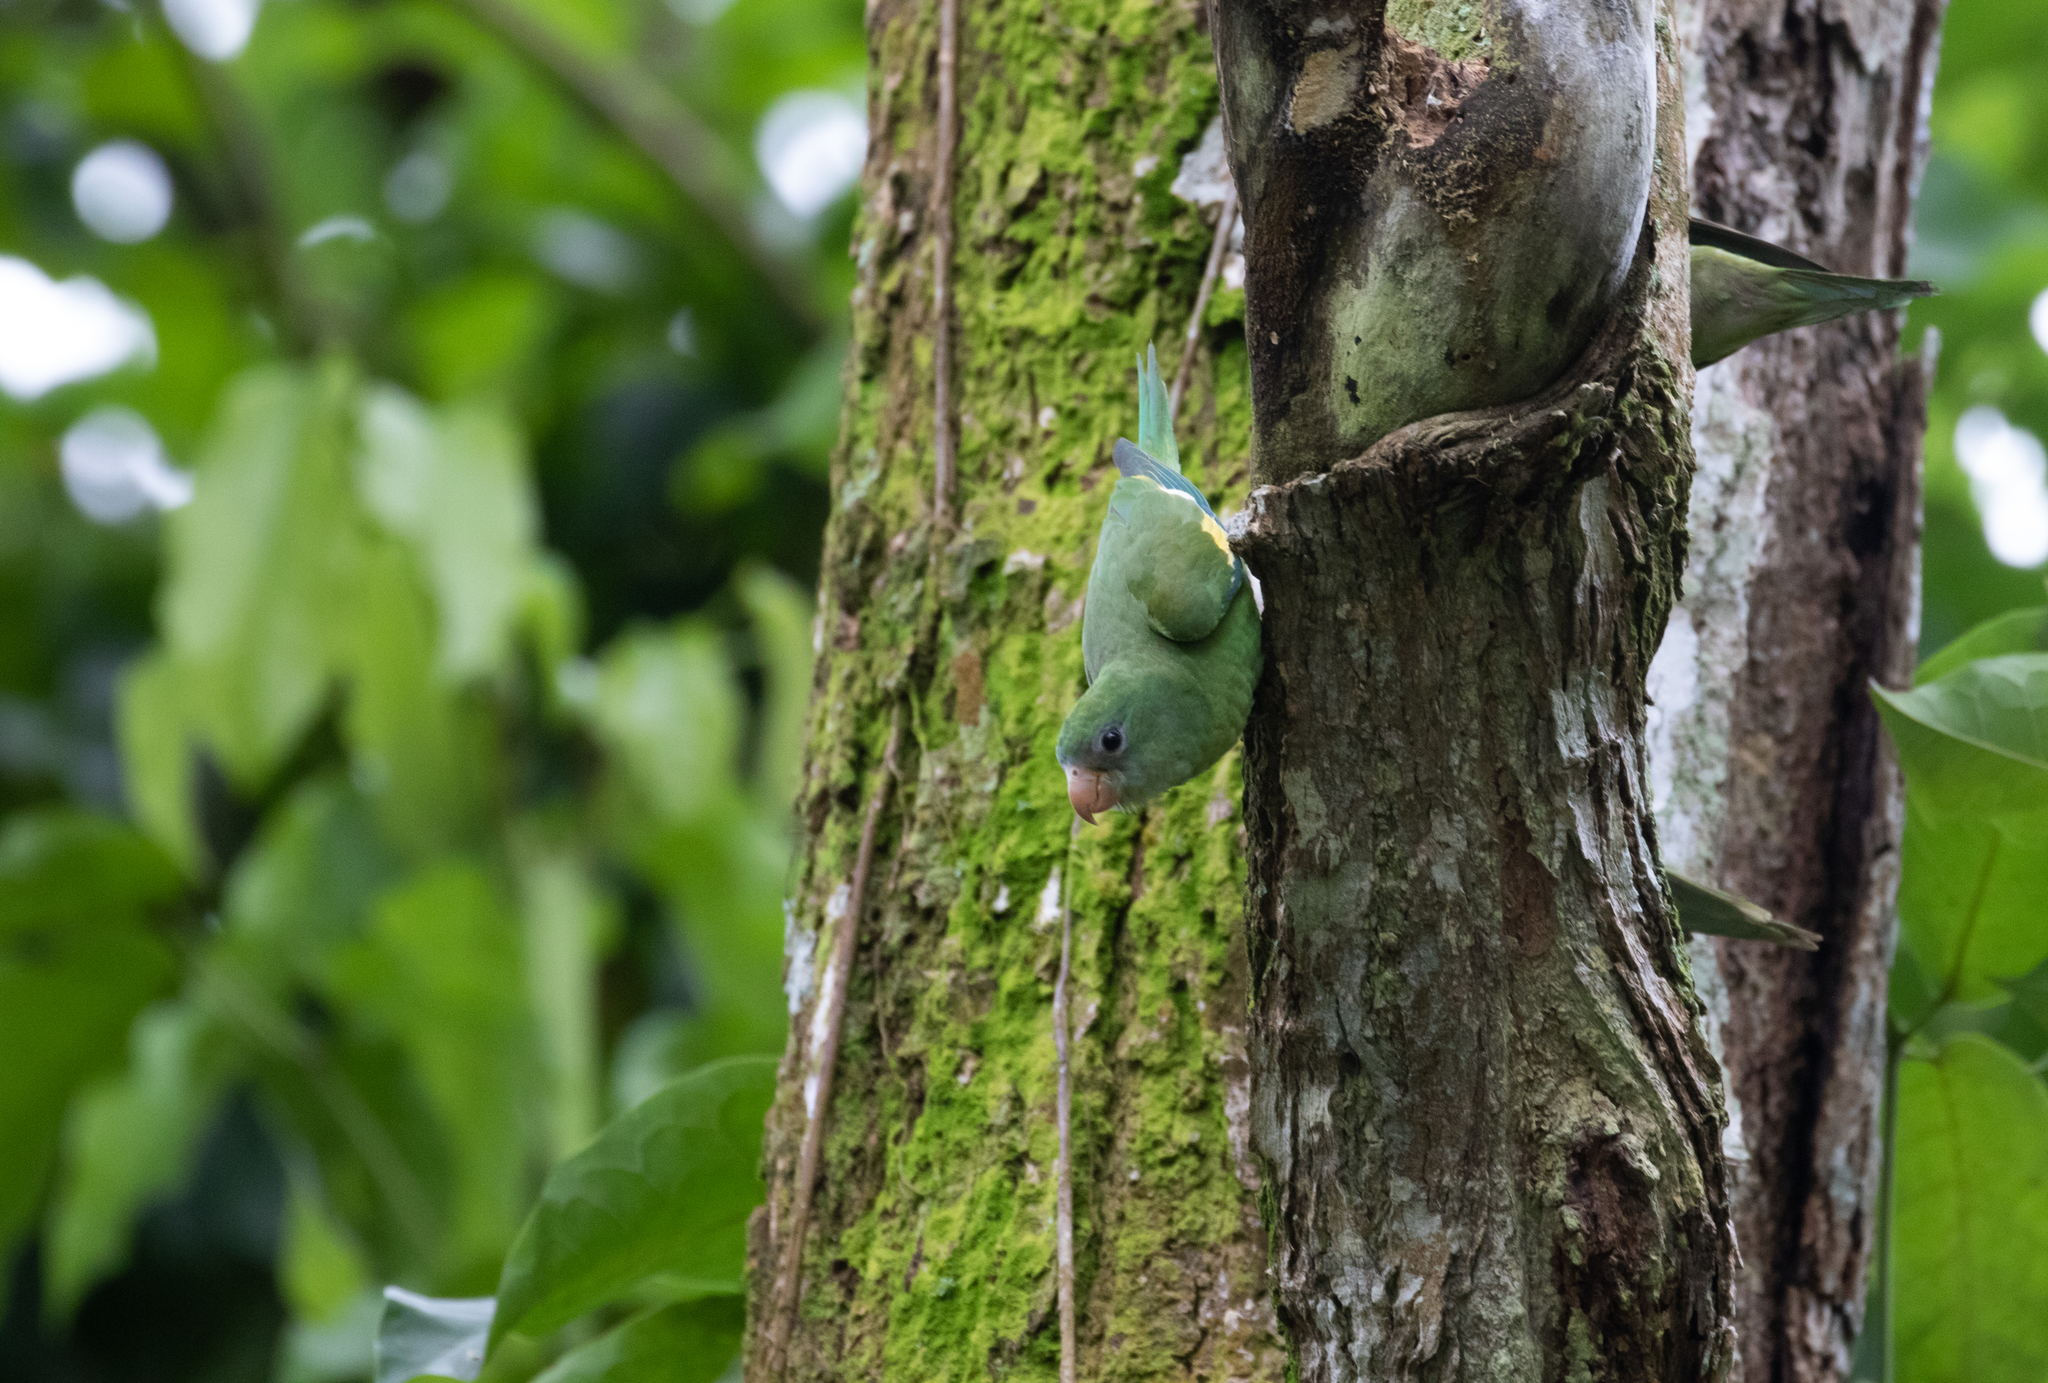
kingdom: Animalia
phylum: Chordata
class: Aves
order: Psittaciformes
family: Psittacidae
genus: Brotogeris
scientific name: Brotogeris versicolurus
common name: White-winged parakeet
